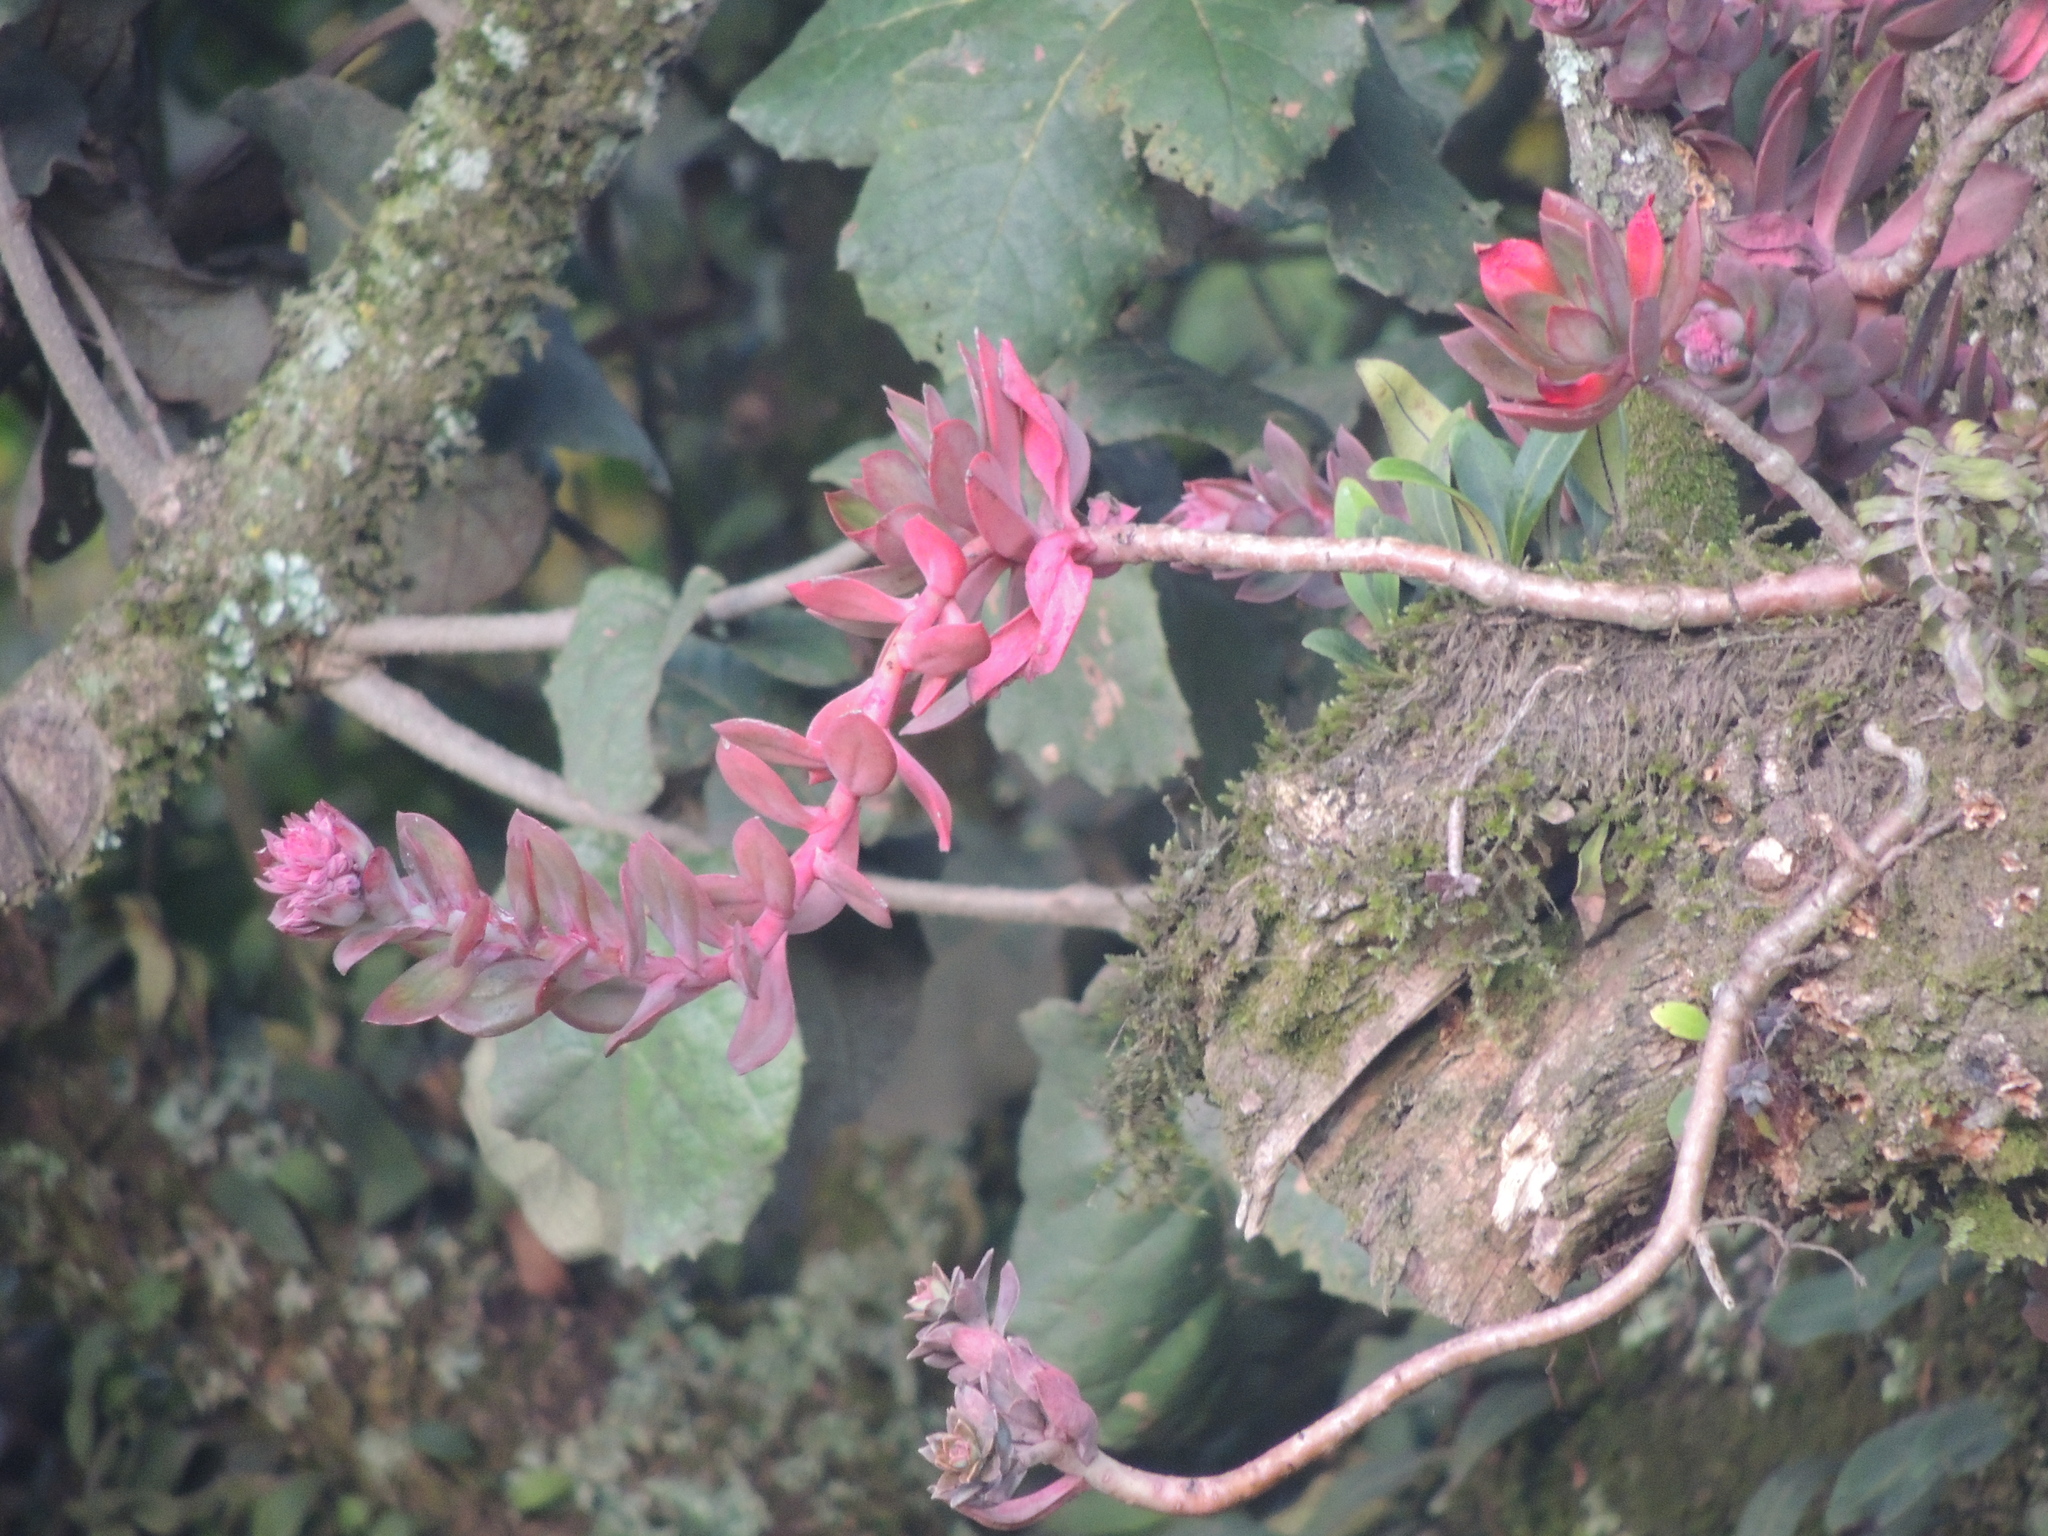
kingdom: Plantae
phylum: Tracheophyta
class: Magnoliopsida
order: Saxifragales
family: Crassulaceae
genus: Echeveria
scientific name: Echeveria rosea
